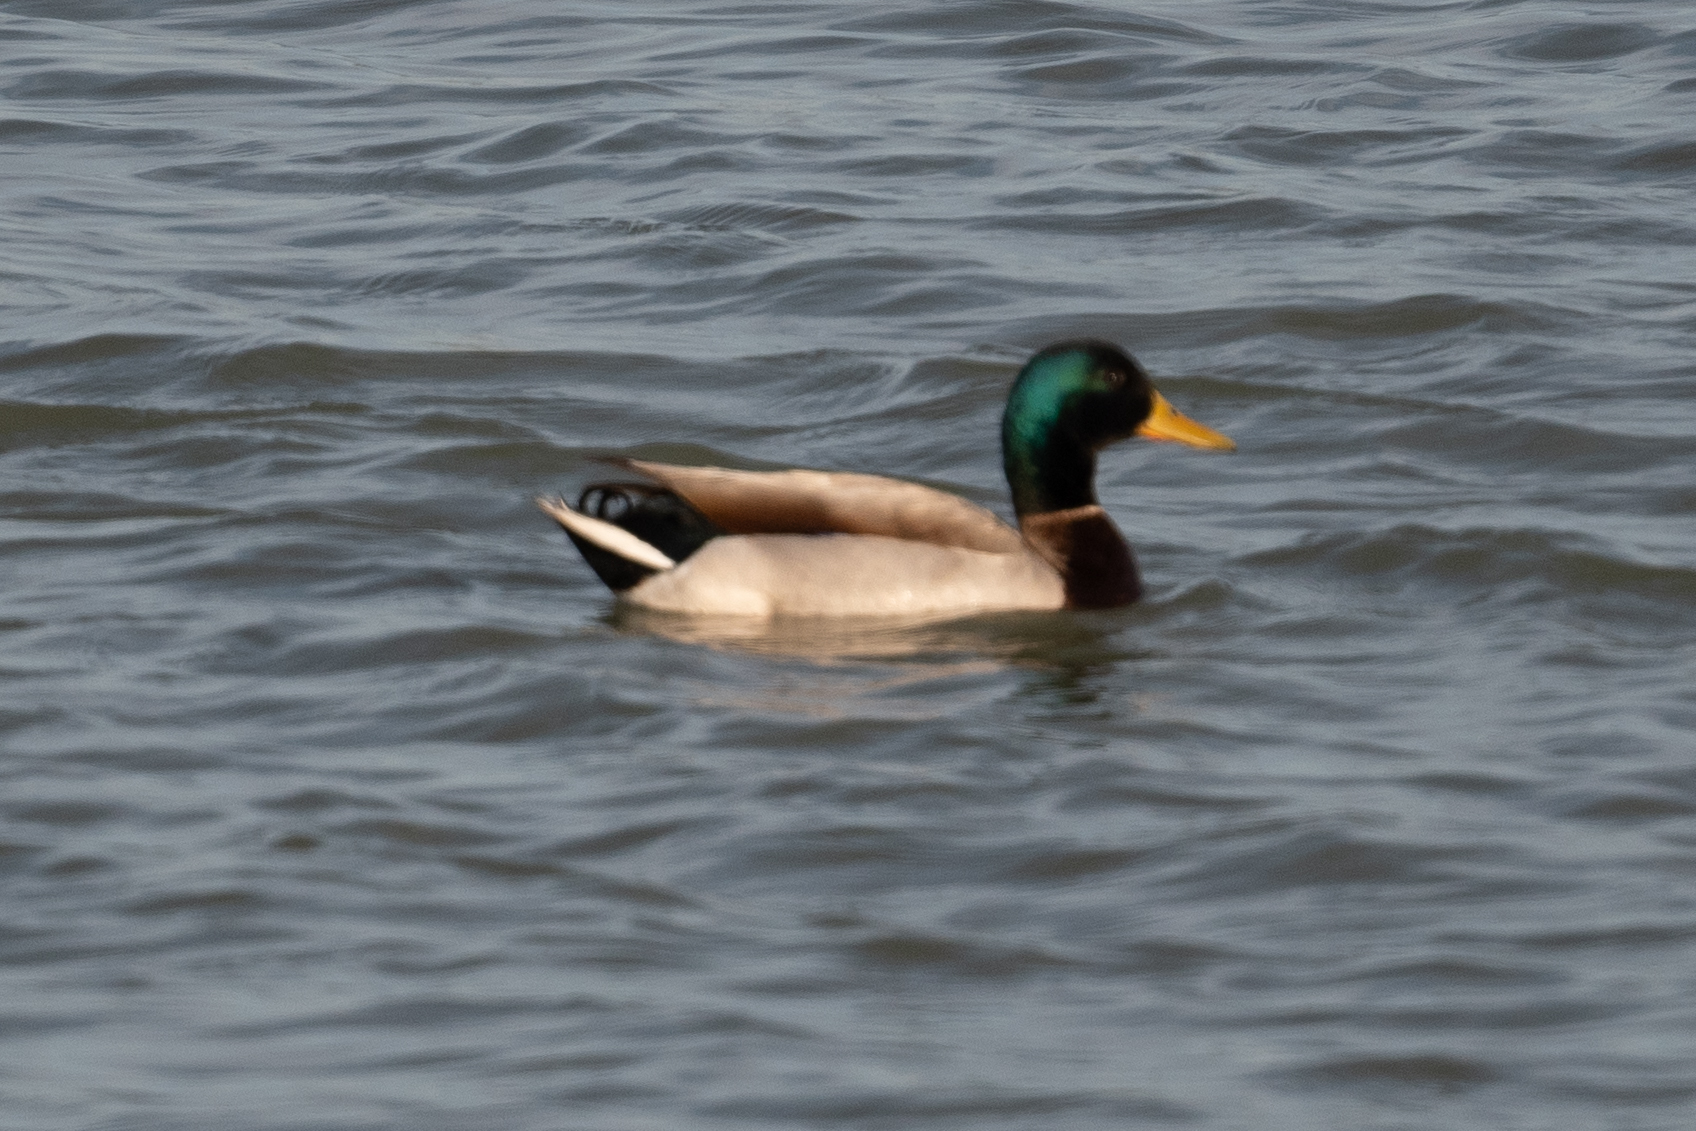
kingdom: Animalia
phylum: Chordata
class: Aves
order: Anseriformes
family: Anatidae
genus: Anas
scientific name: Anas platyrhynchos
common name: Mallard
